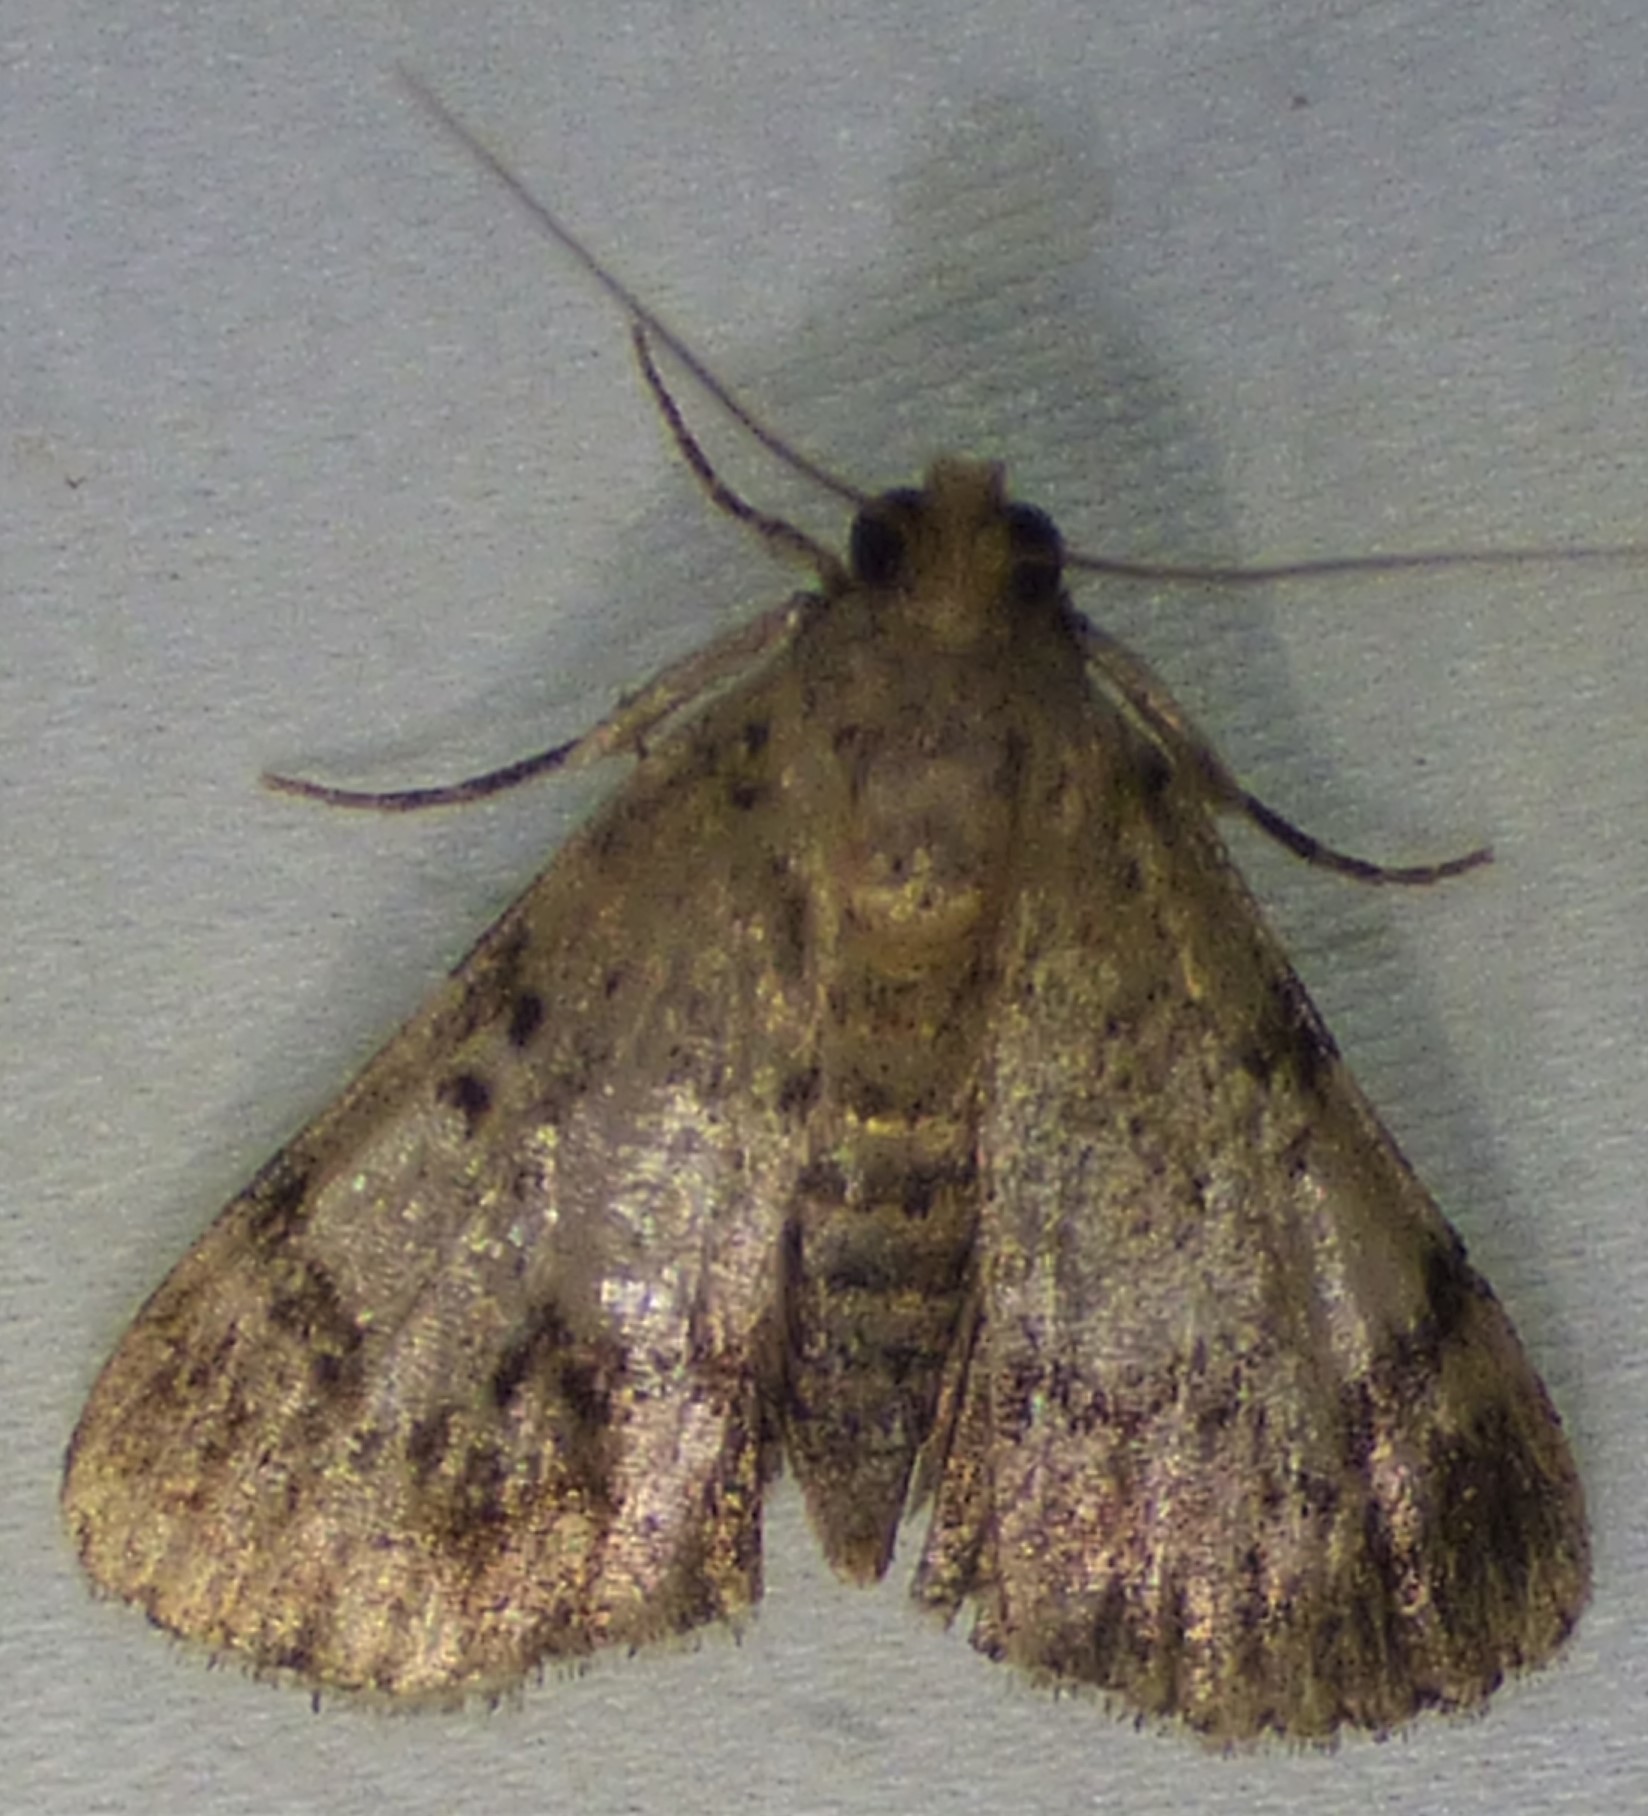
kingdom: Animalia
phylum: Arthropoda
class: Insecta
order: Lepidoptera
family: Pyralidae
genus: Epipaschia
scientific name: Epipaschia superatalis
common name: Dimorphic macalla moth
